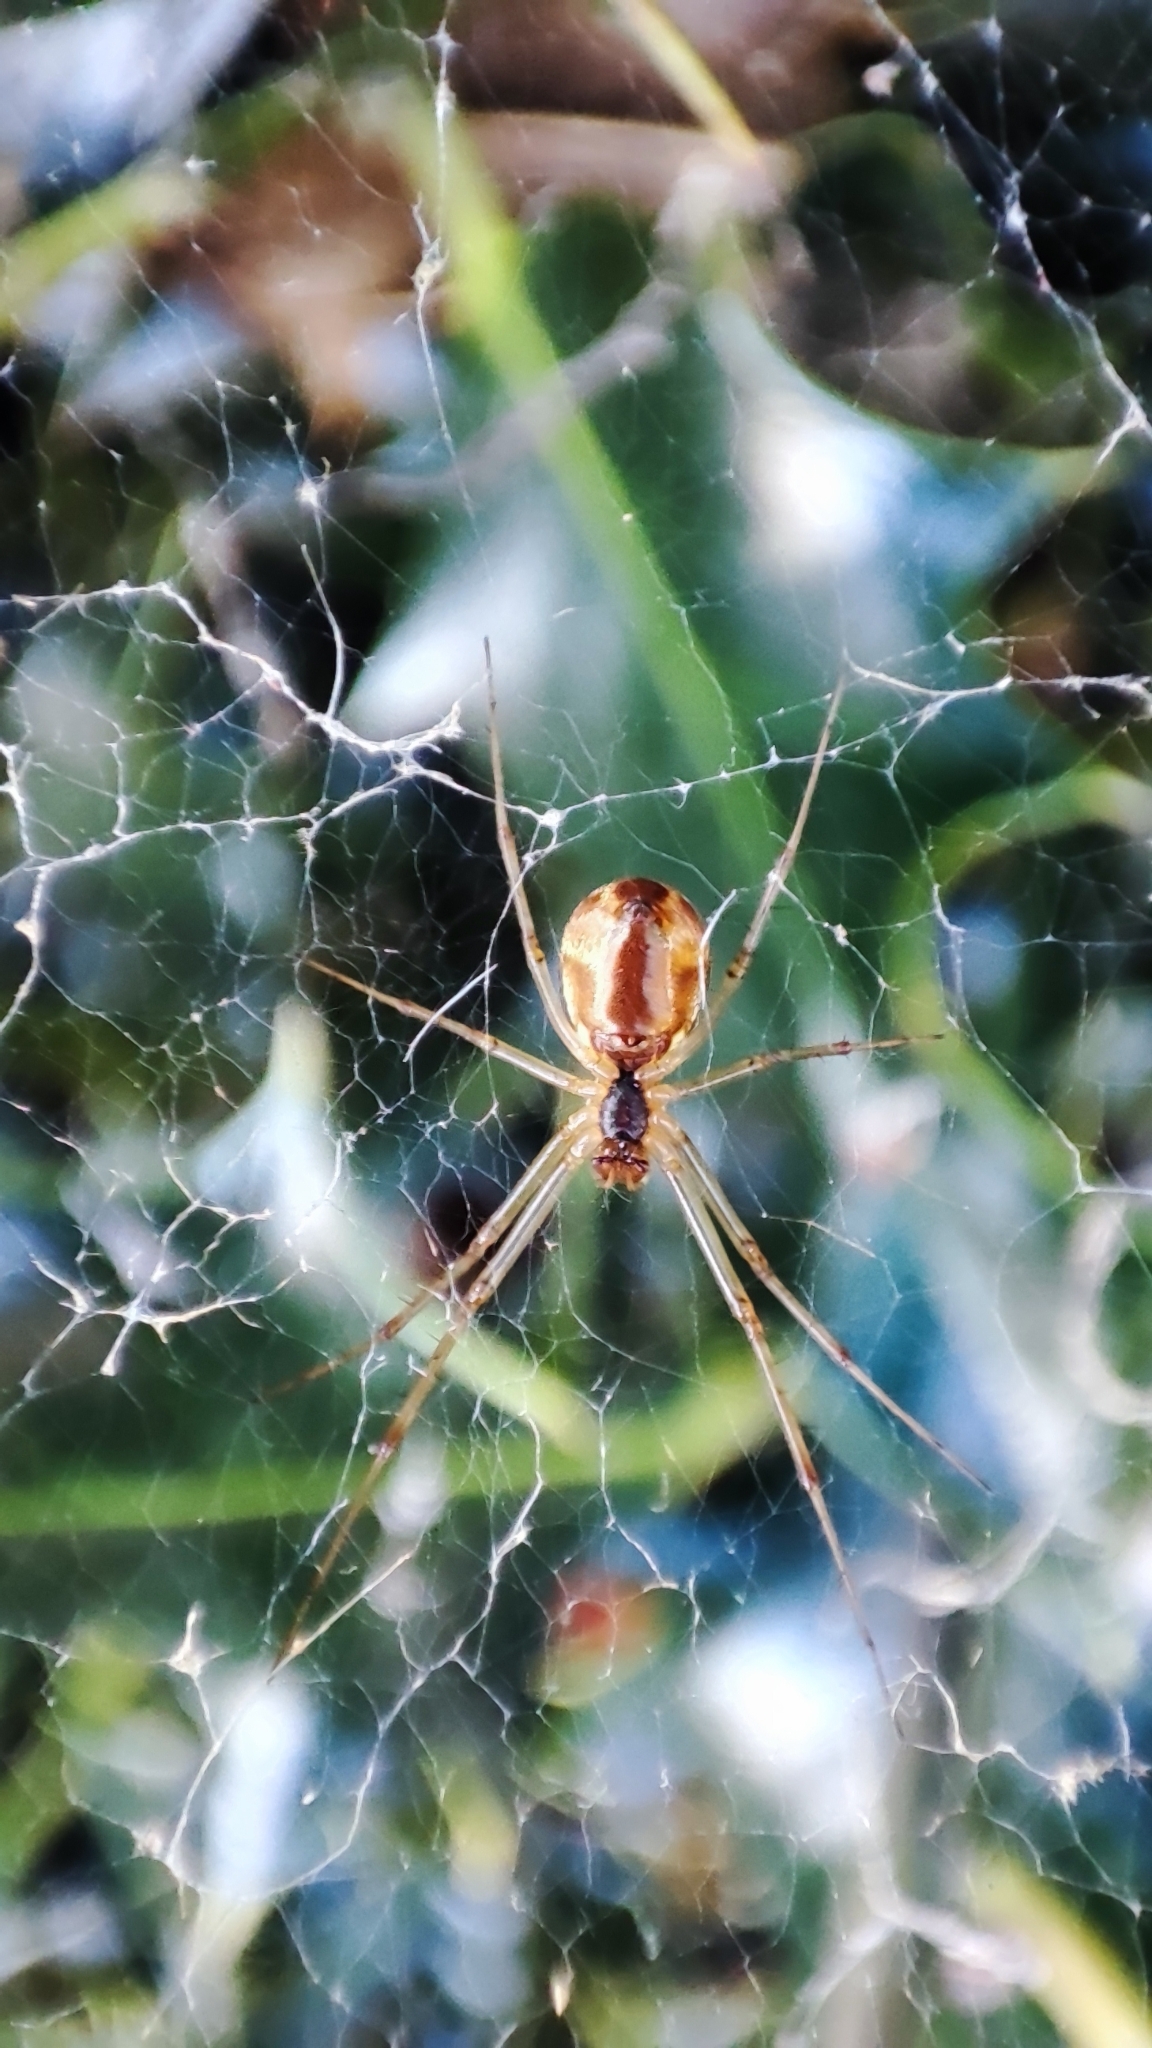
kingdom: Animalia
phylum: Arthropoda
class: Arachnida
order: Araneae
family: Linyphiidae
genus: Linyphia
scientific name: Linyphia triangularis
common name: Money spider
